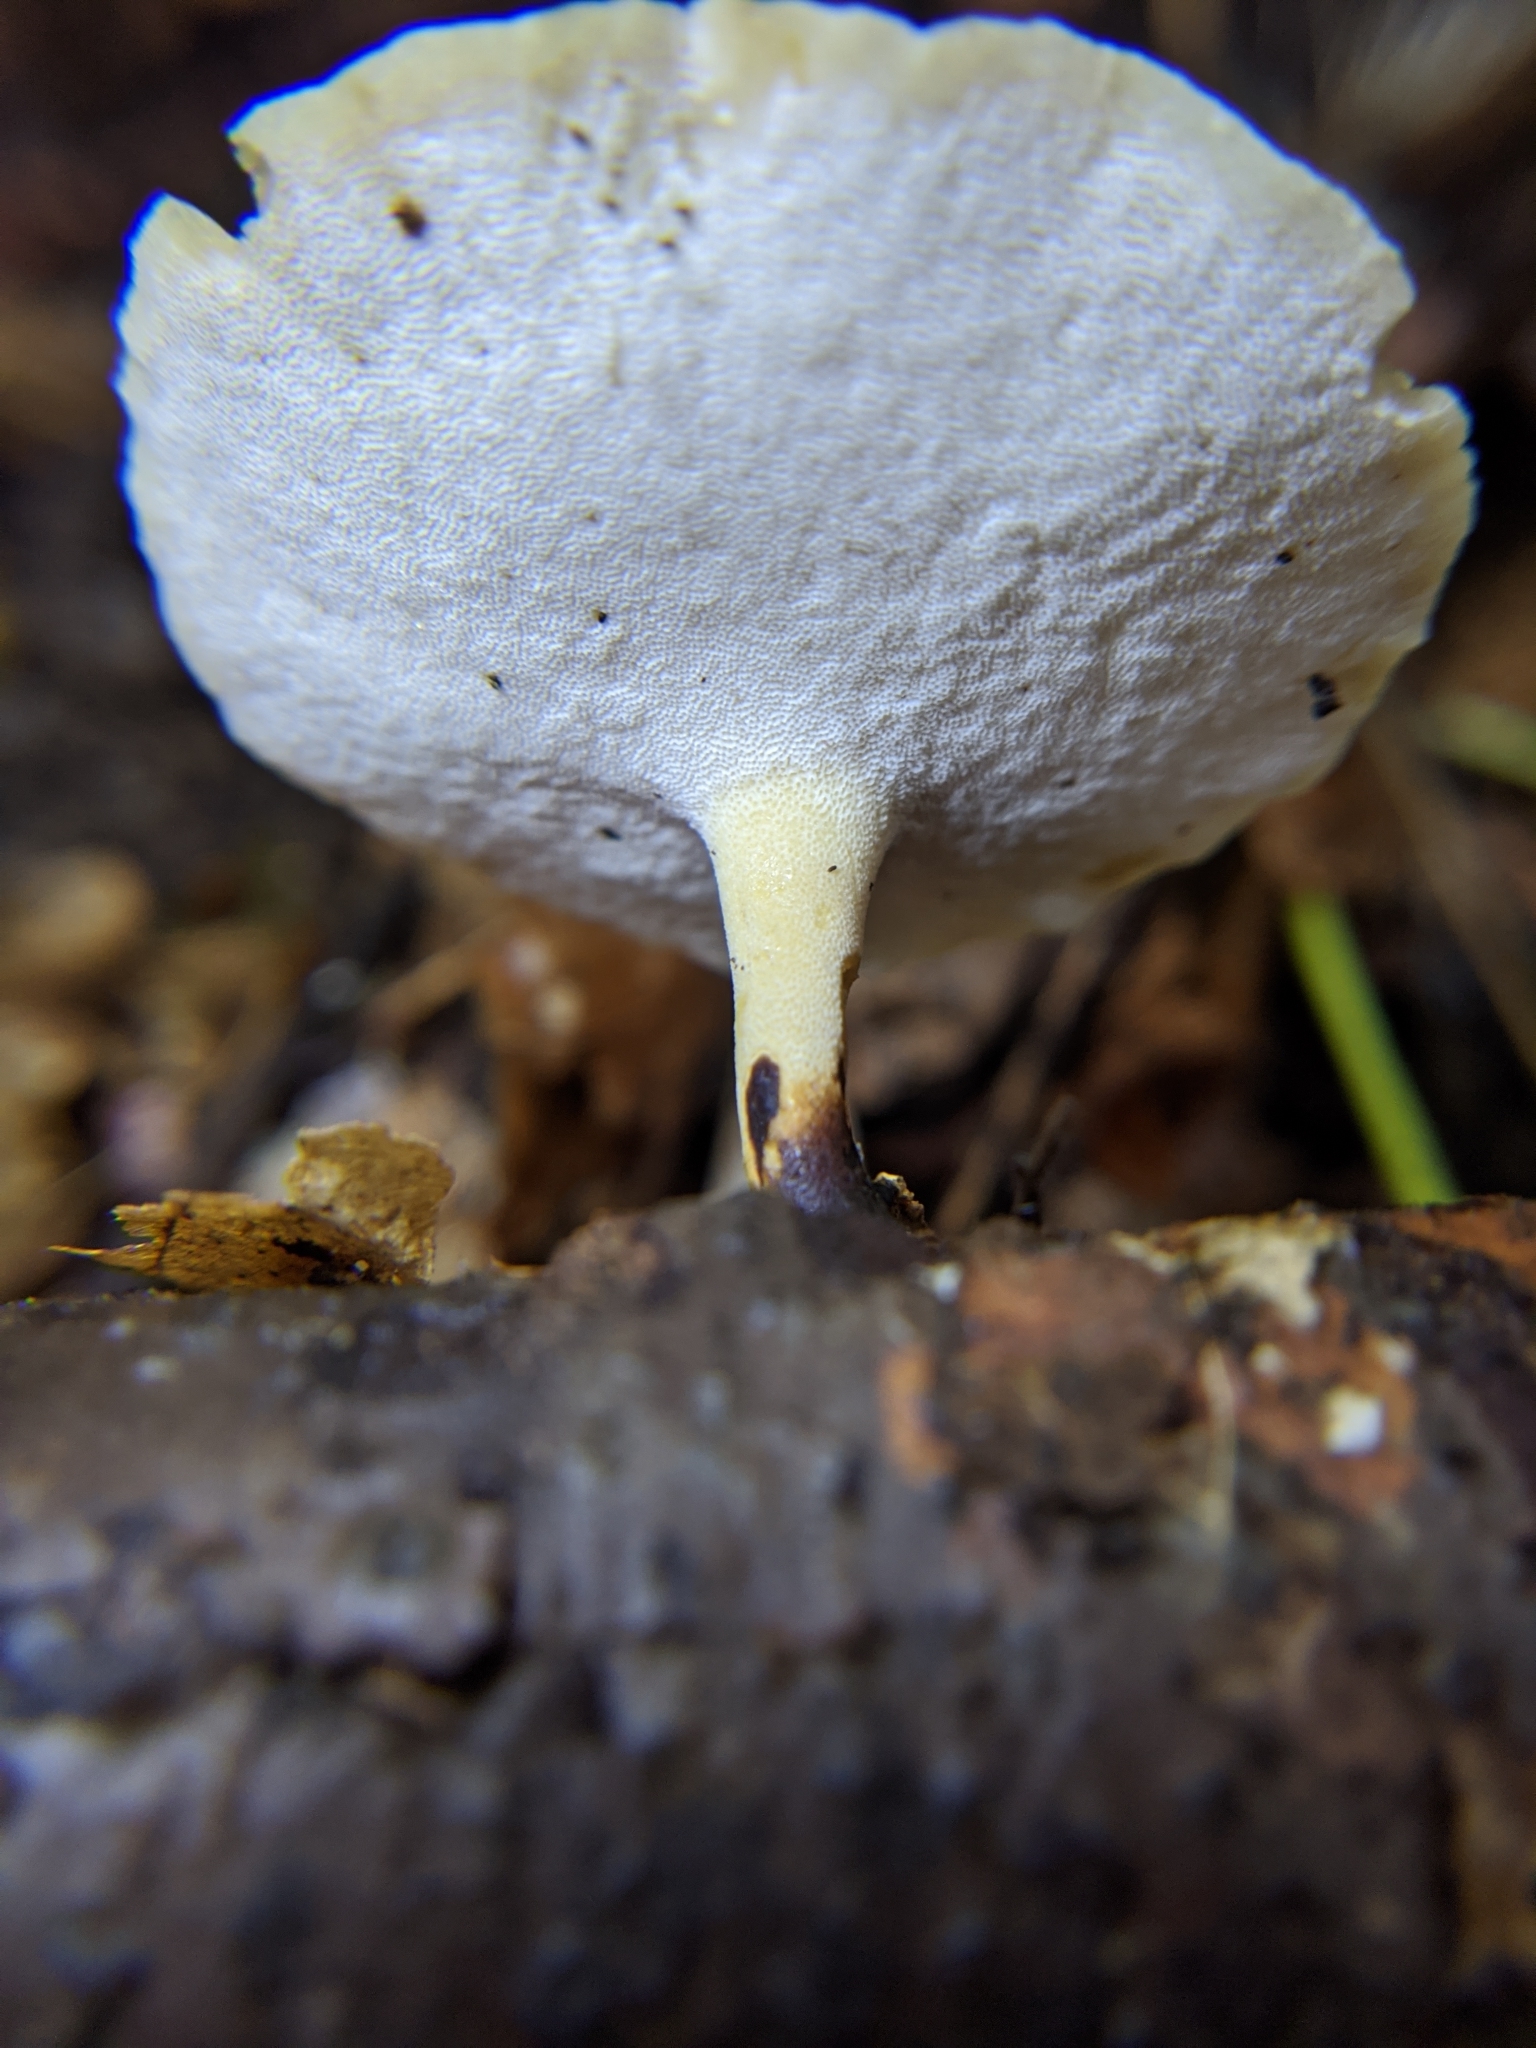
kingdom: Fungi
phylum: Basidiomycota
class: Agaricomycetes
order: Polyporales
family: Polyporaceae
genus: Cerioporus
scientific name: Cerioporus varius
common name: Elegant polypore
